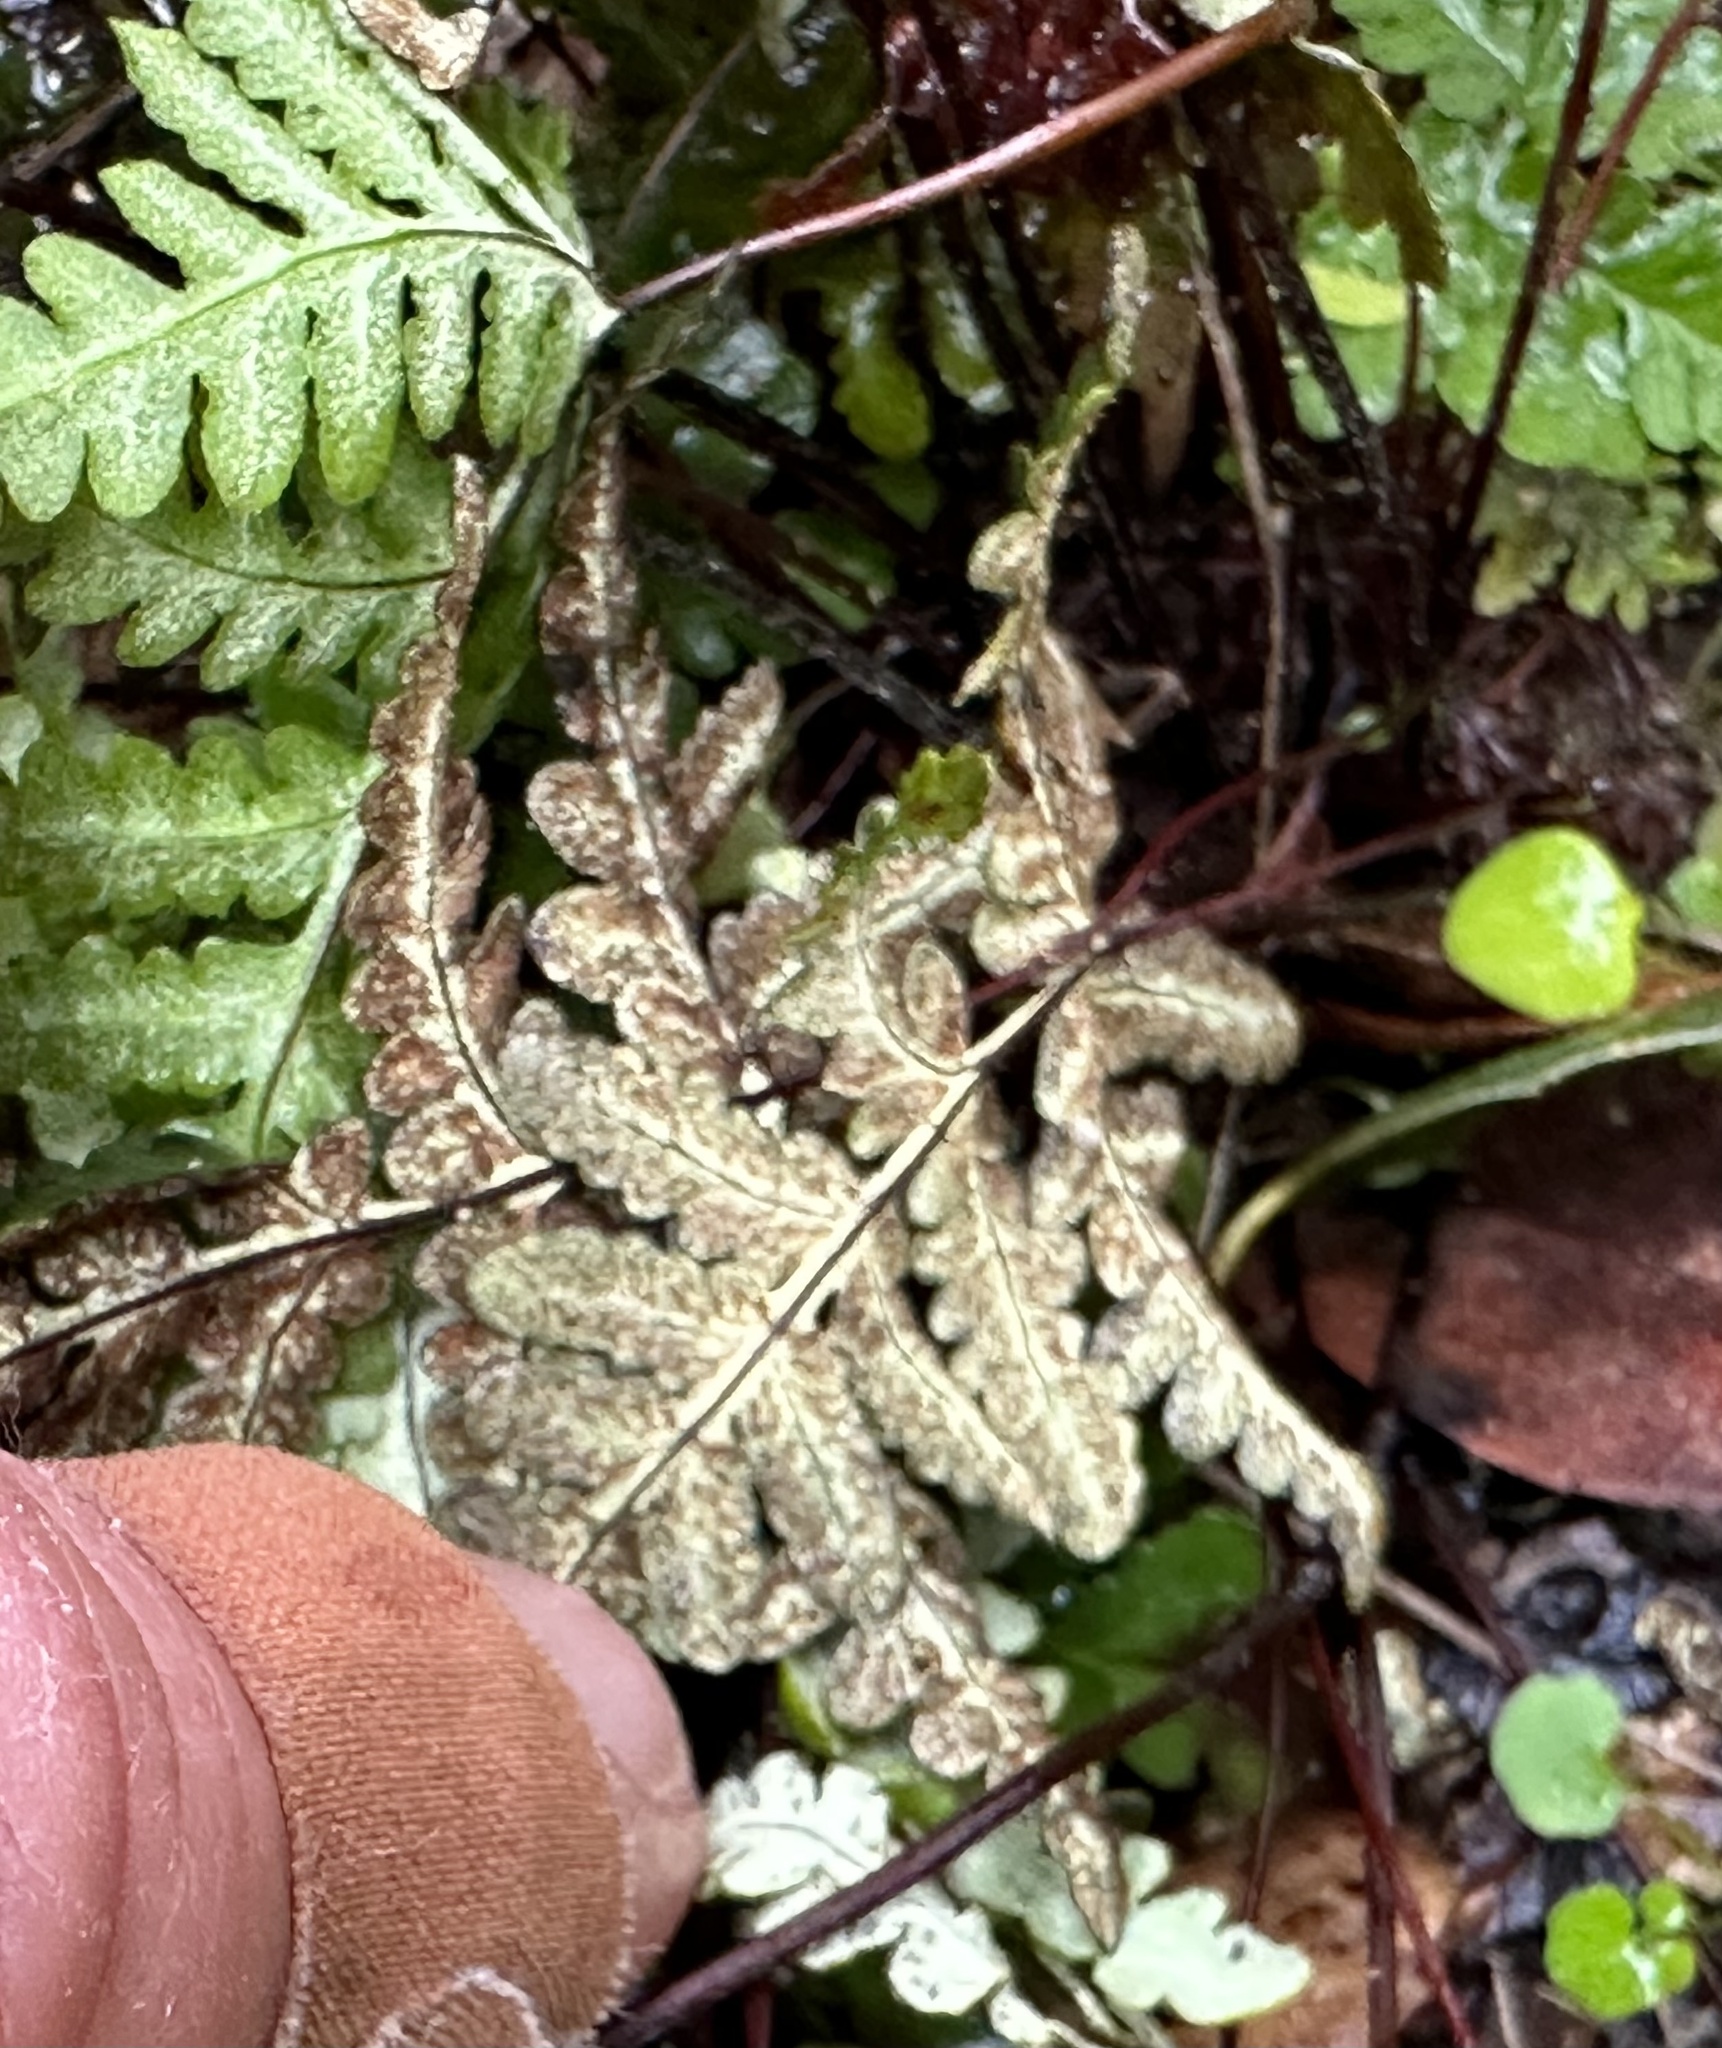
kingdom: Plantae
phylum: Tracheophyta
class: Polypodiopsida
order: Polypodiales
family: Pteridaceae
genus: Pentagramma
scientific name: Pentagramma triangularis
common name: Gold fern
